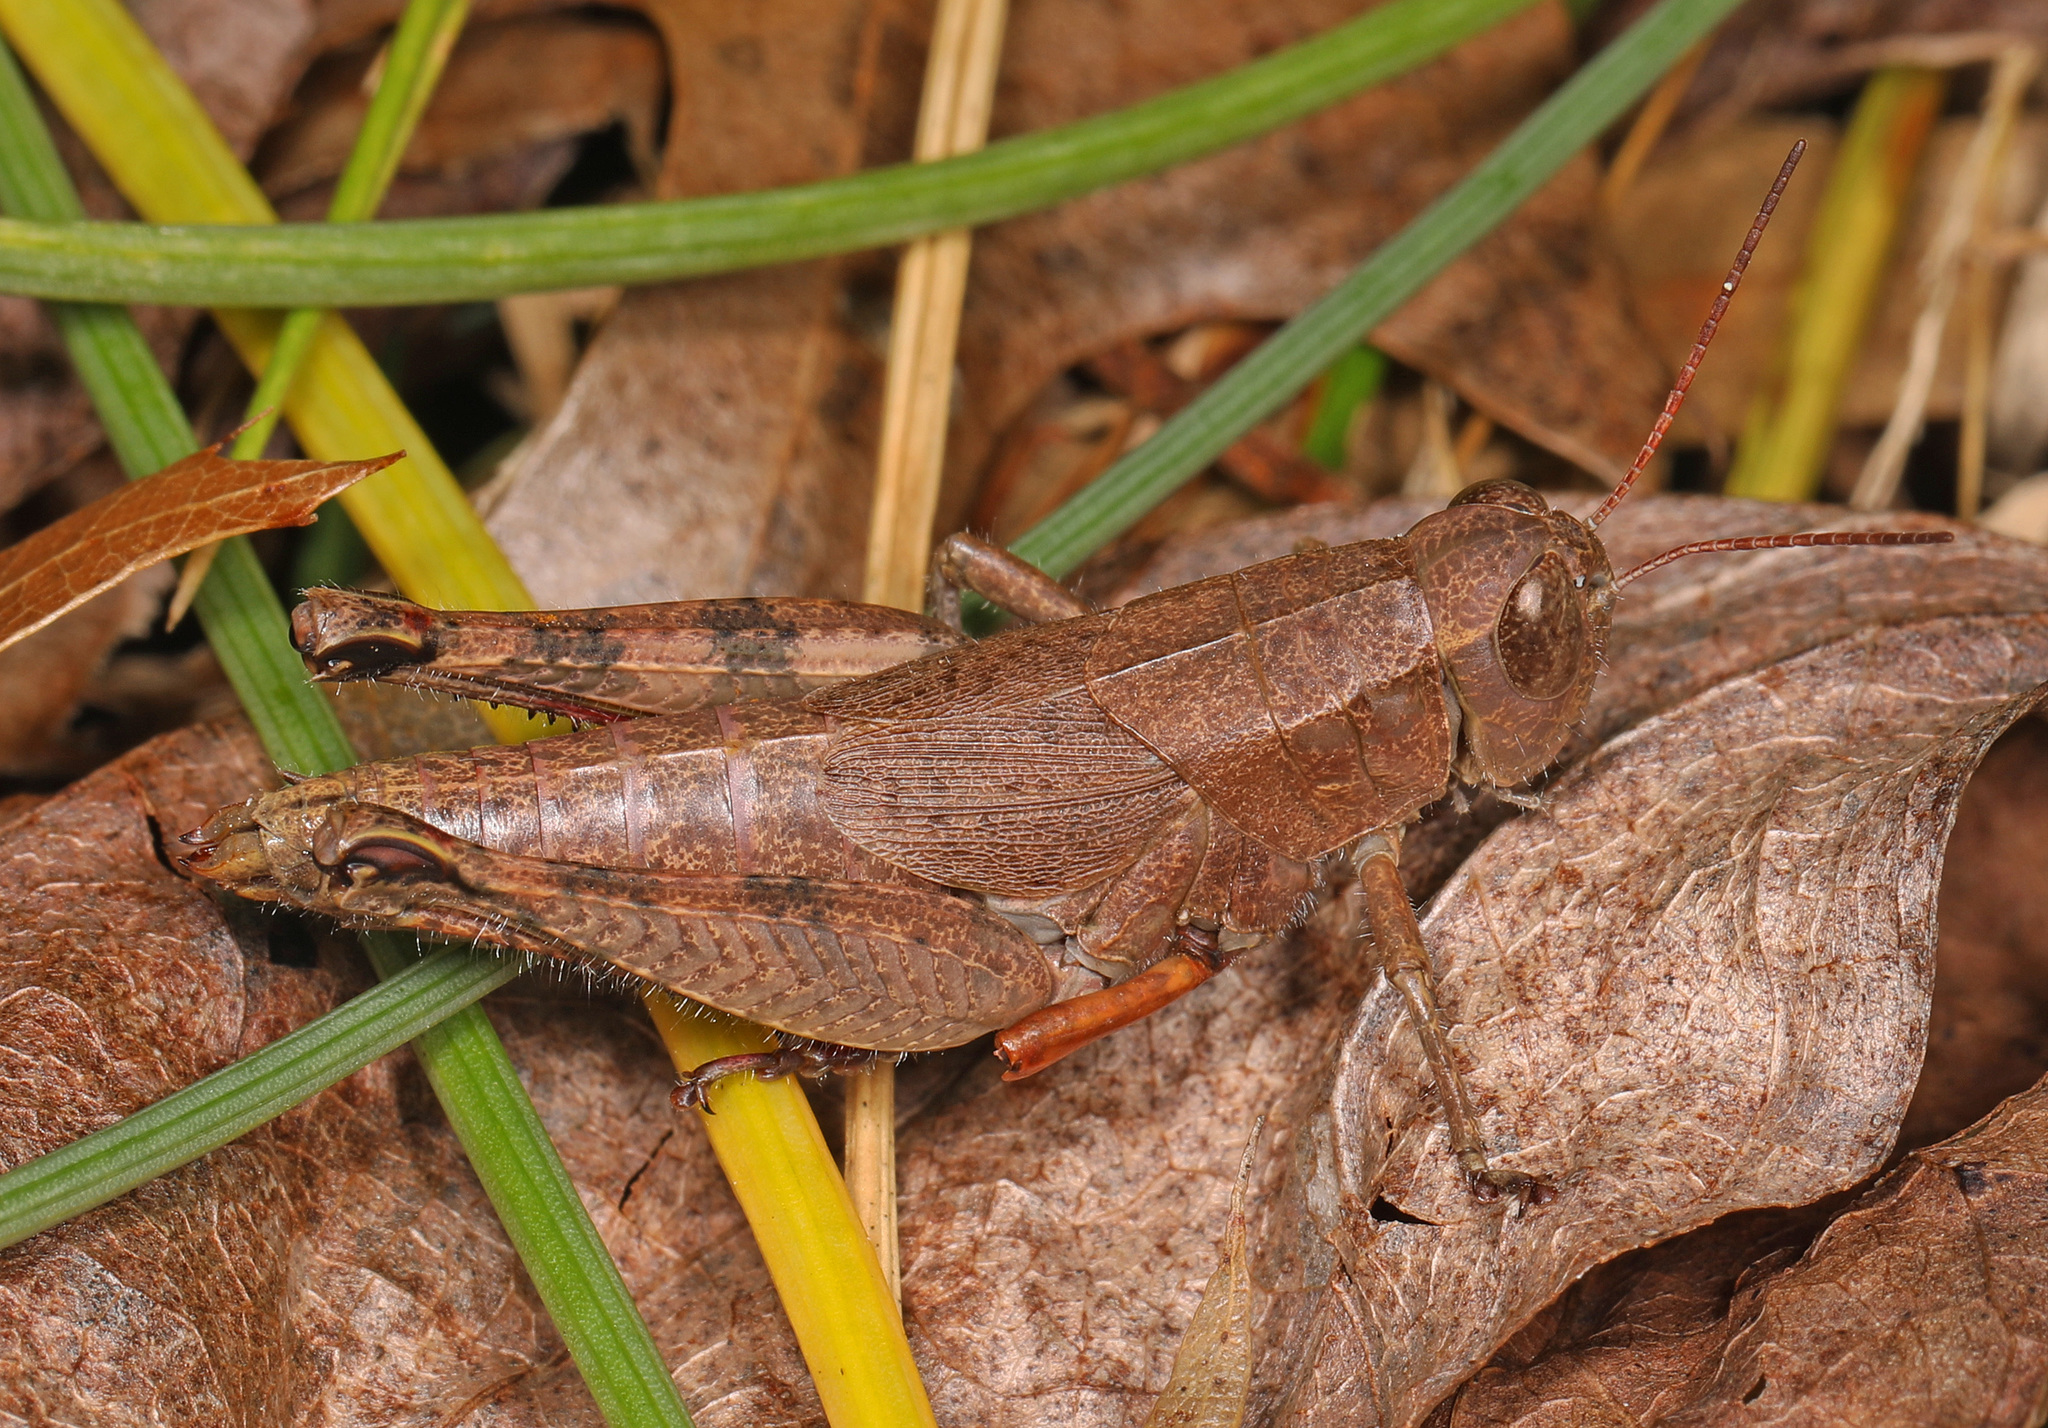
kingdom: Animalia
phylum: Arthropoda
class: Insecta
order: Orthoptera
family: Acrididae
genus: Melanoplus
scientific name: Melanoplus scudderi
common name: Scudder's short-winged locust
